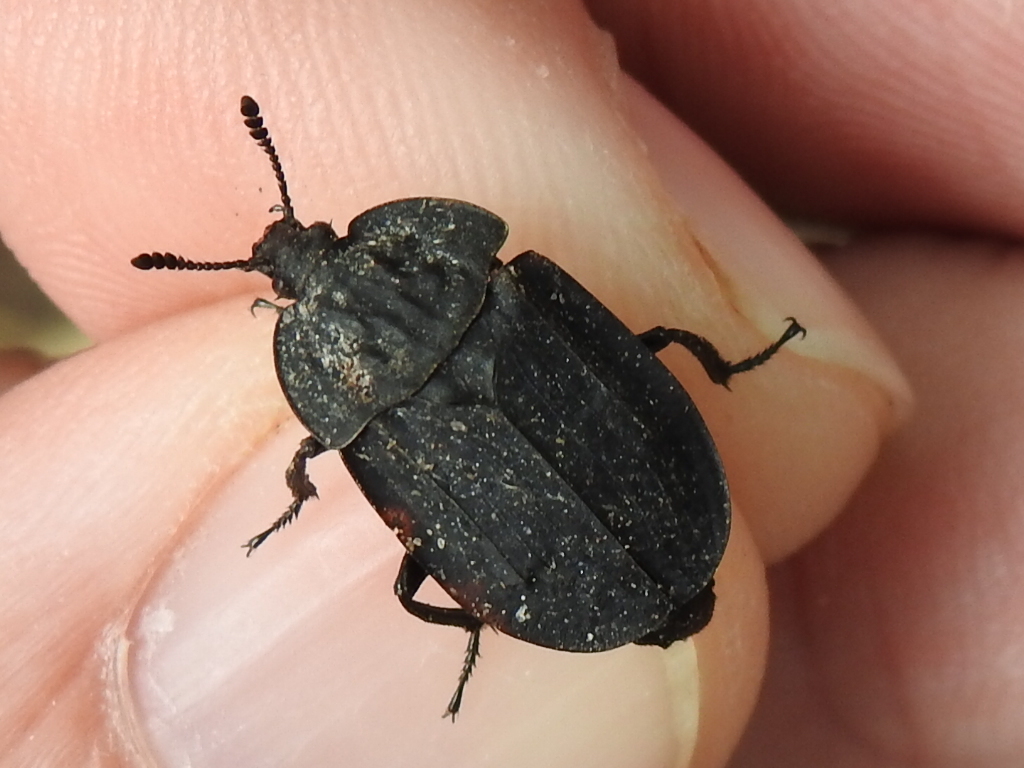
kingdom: Animalia
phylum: Arthropoda
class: Insecta
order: Coleoptera
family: Staphylinidae
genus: Oiceoptoma
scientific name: Oiceoptoma inaequale
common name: Ridged carrion beetle
